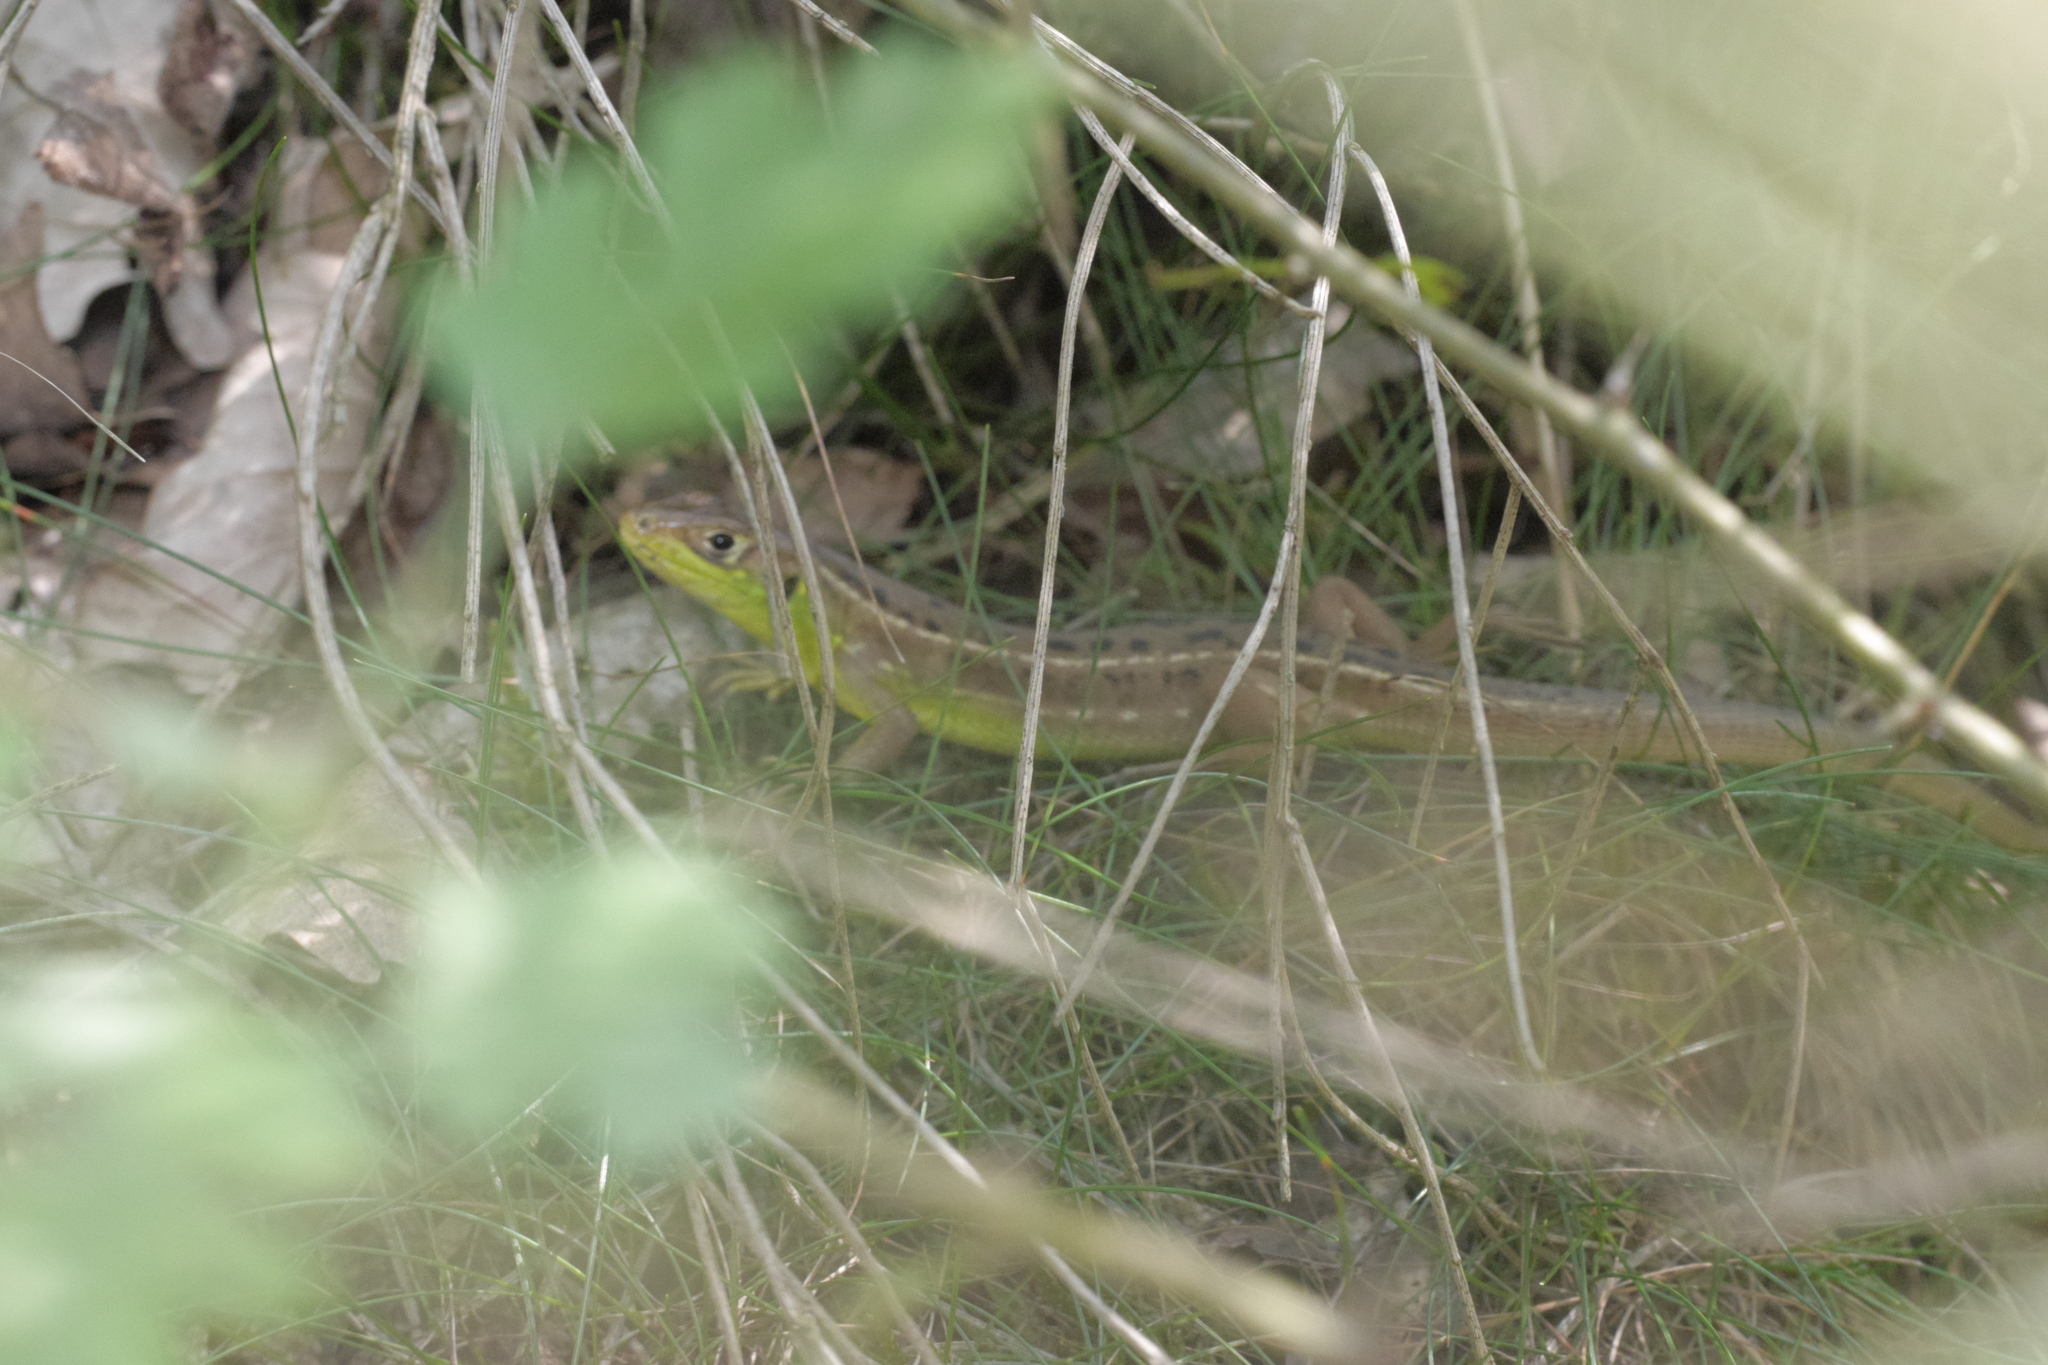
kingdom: Animalia
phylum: Chordata
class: Squamata
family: Lacertidae
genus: Lacerta
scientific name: Lacerta bilineata
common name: Western green lizard
